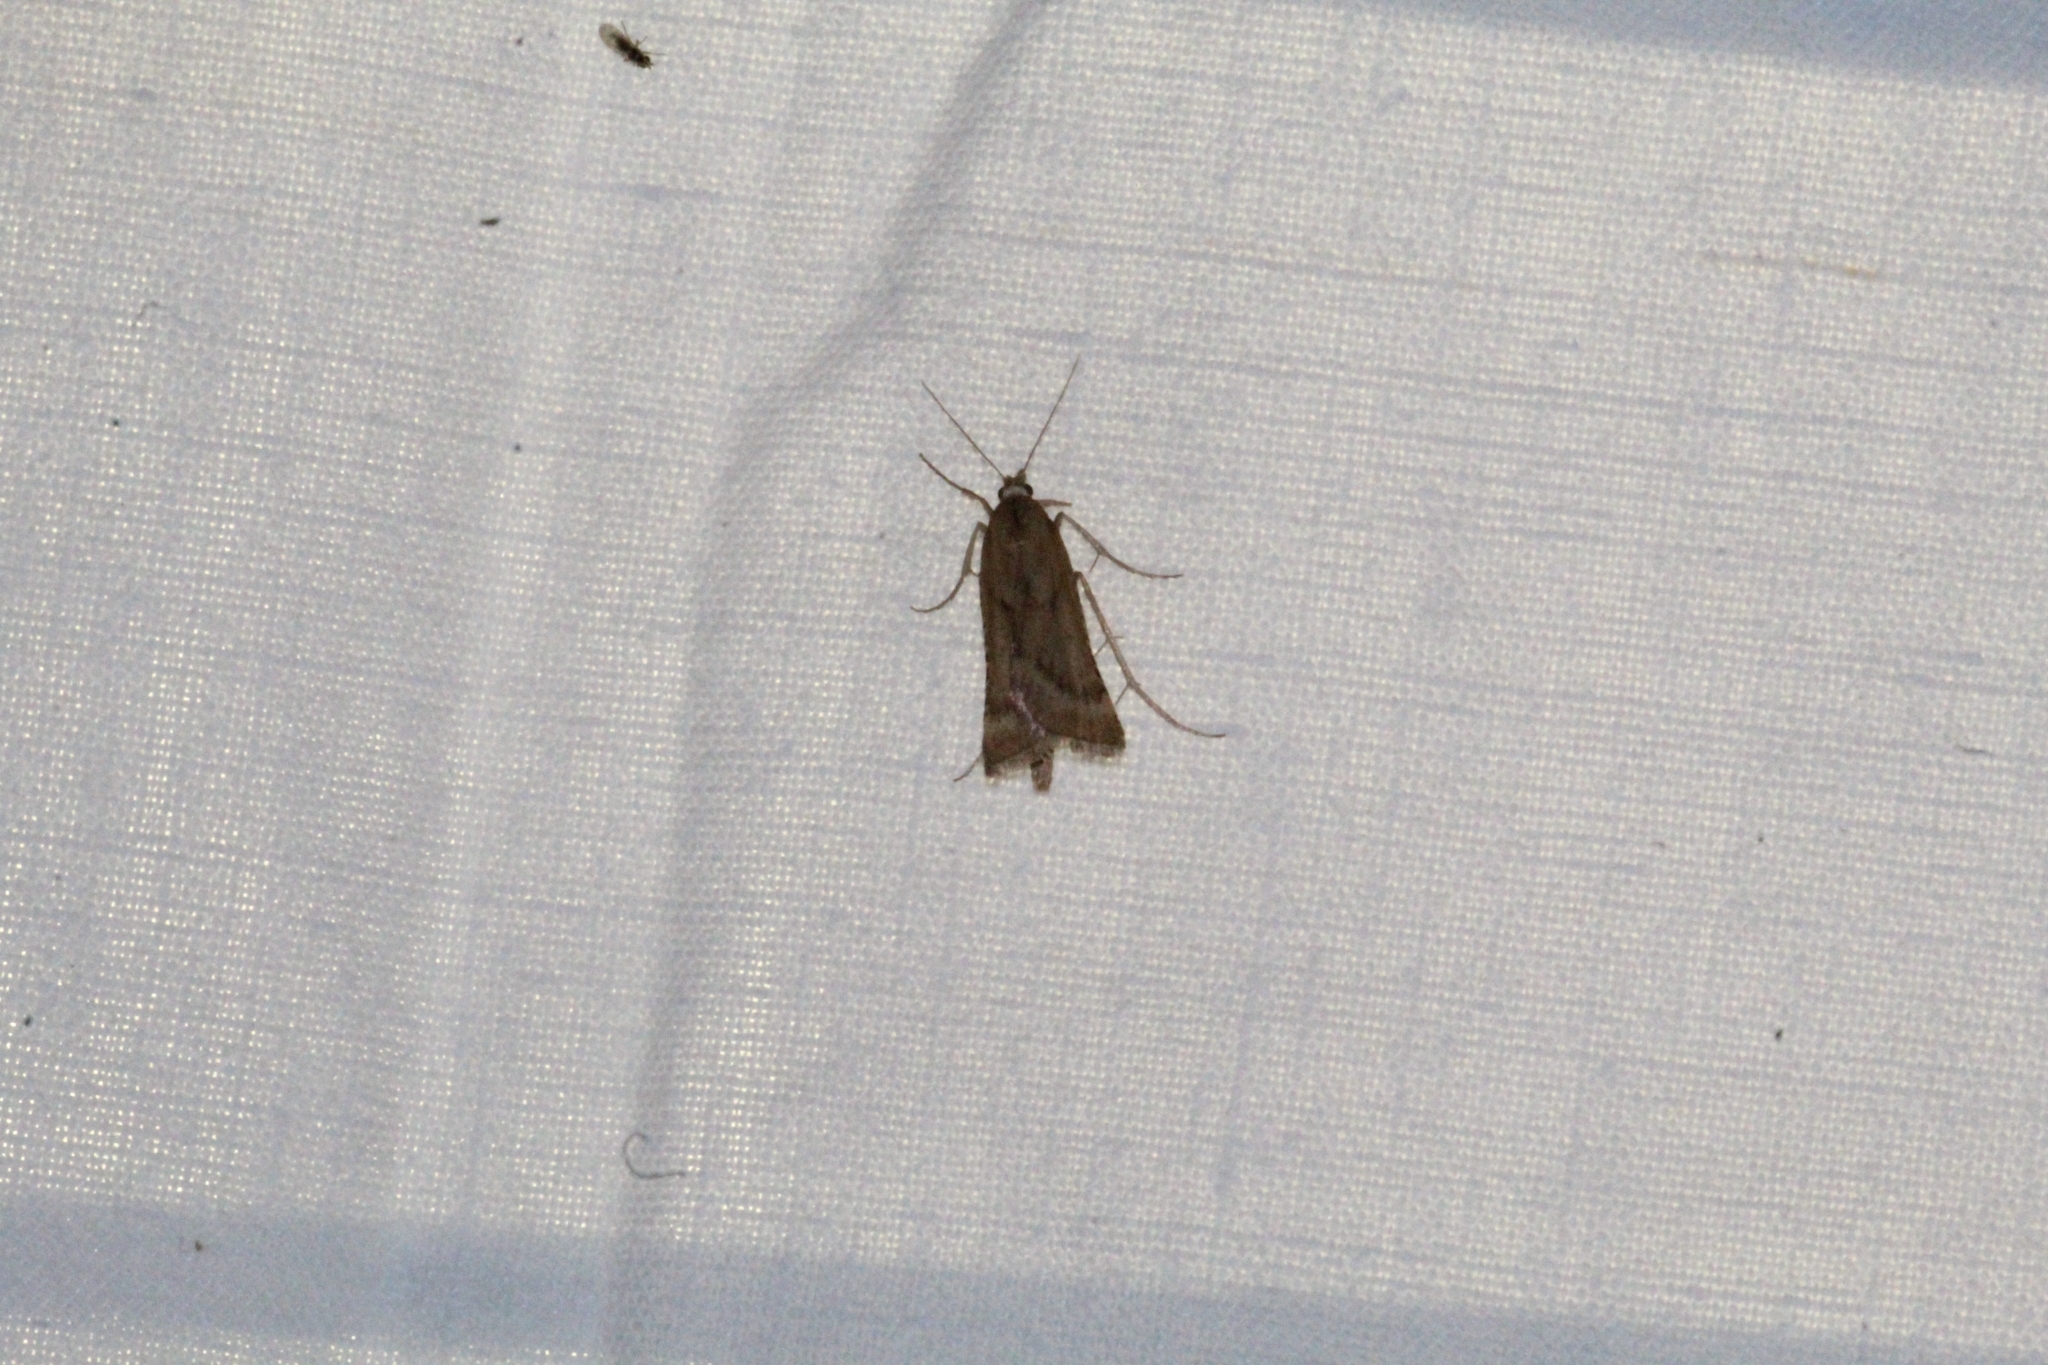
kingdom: Animalia
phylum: Arthropoda
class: Insecta
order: Lepidoptera
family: Pyralidae
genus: Synaphe
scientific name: Synaphe punctalis
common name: Long-legged tabby
